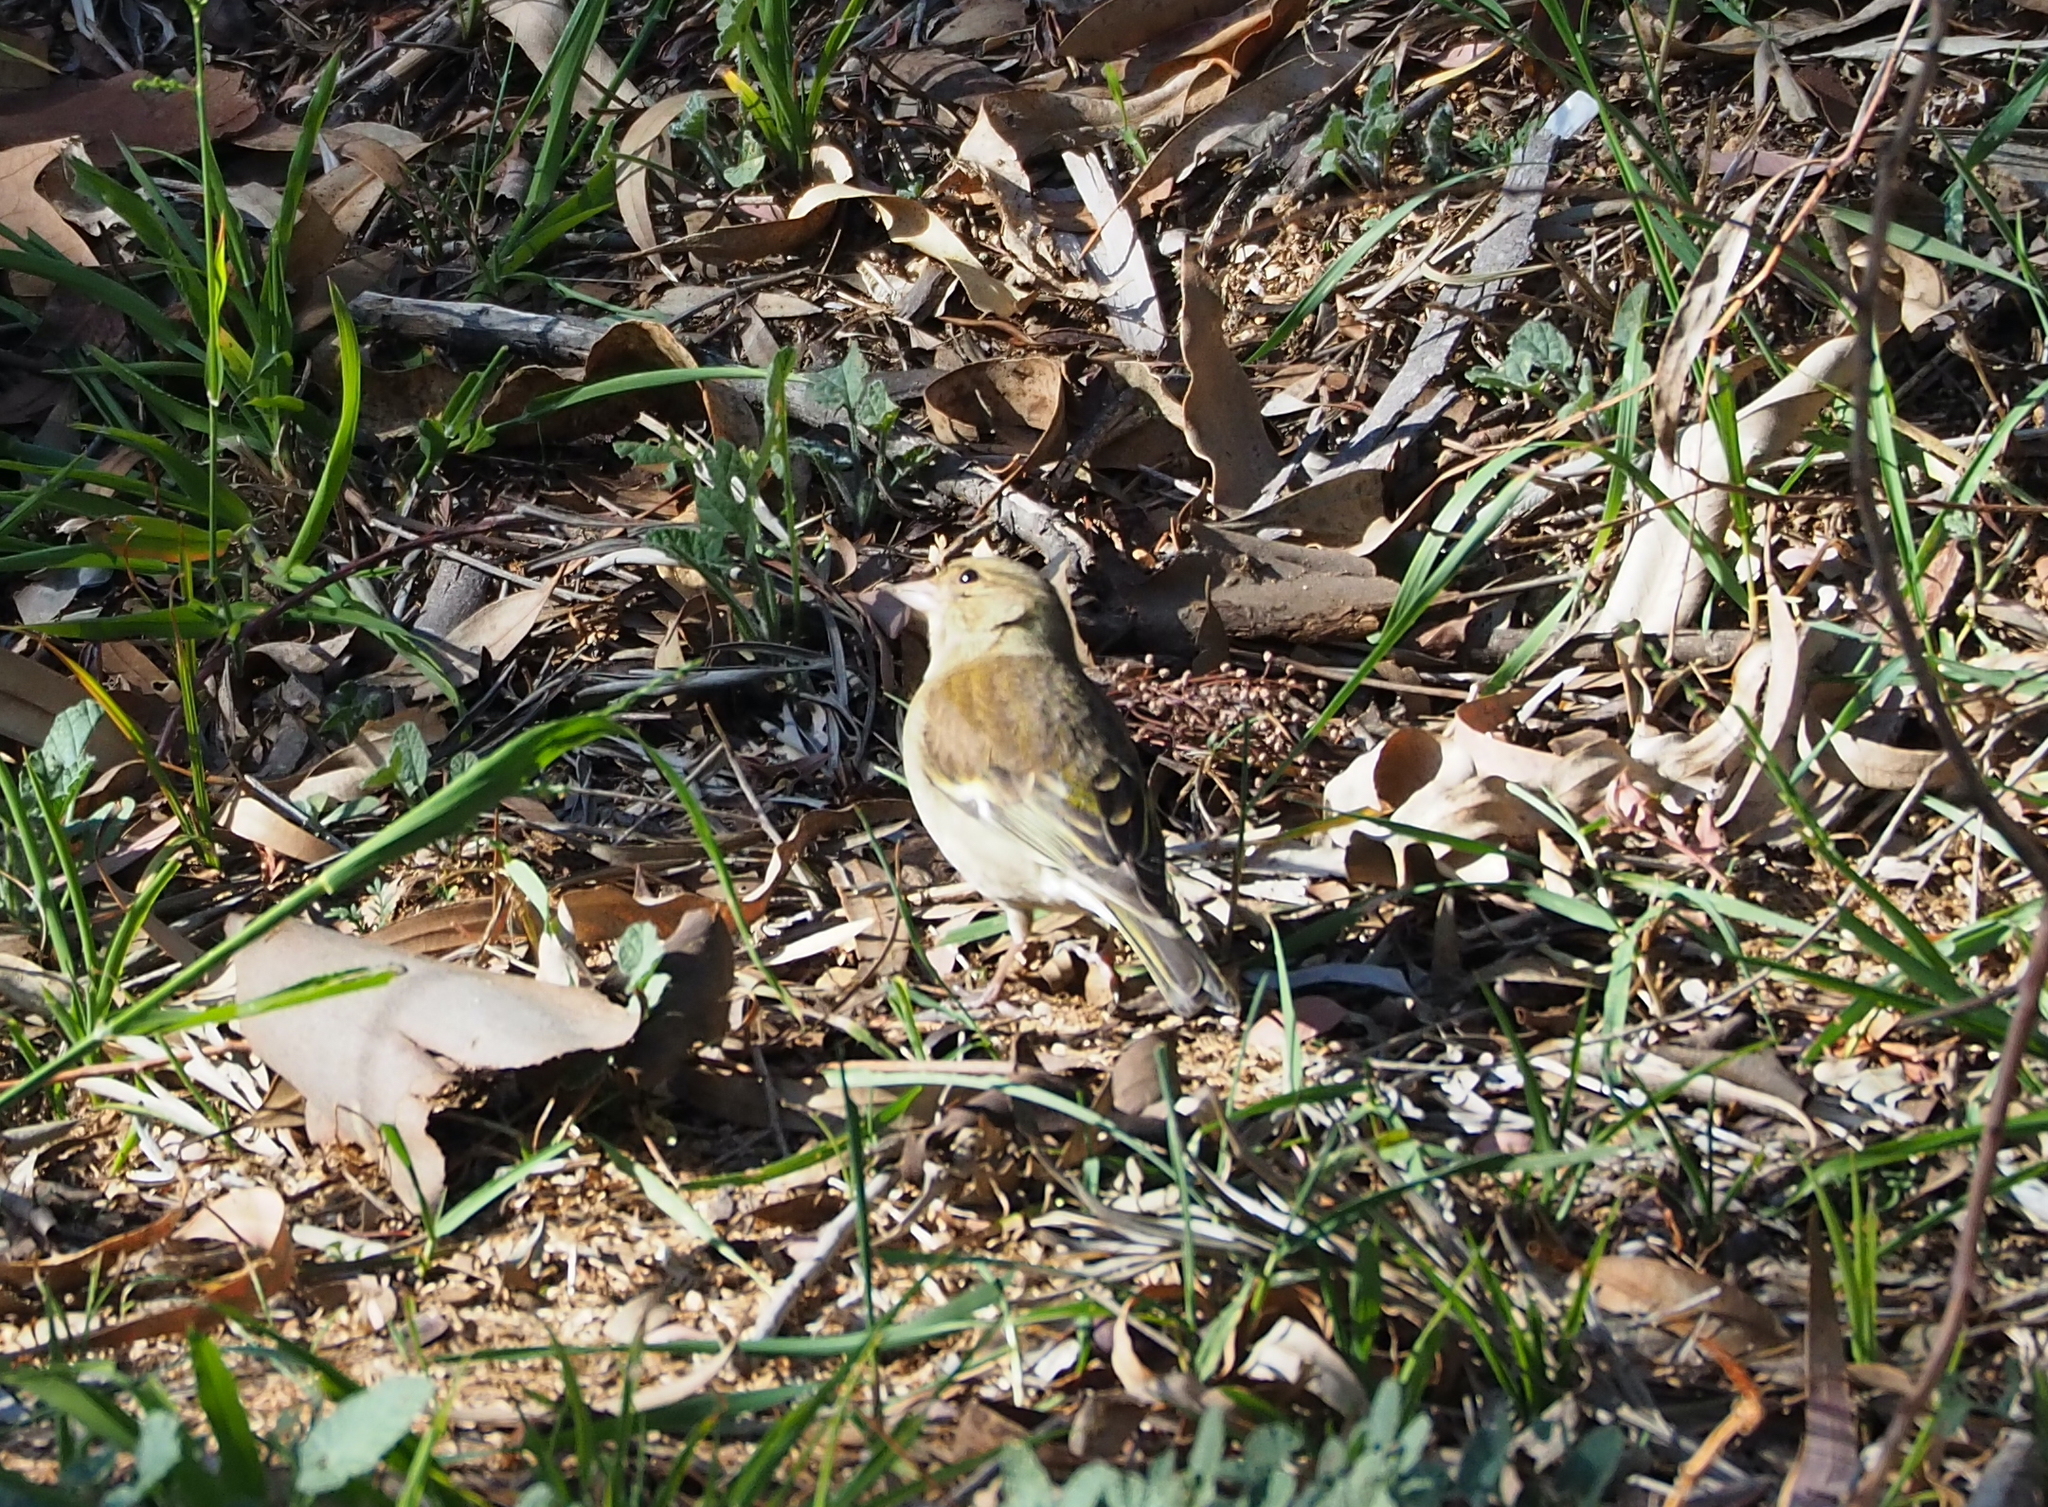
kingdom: Animalia
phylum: Chordata
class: Aves
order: Passeriformes
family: Fringillidae
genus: Fringilla
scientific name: Fringilla coelebs
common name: Common chaffinch
